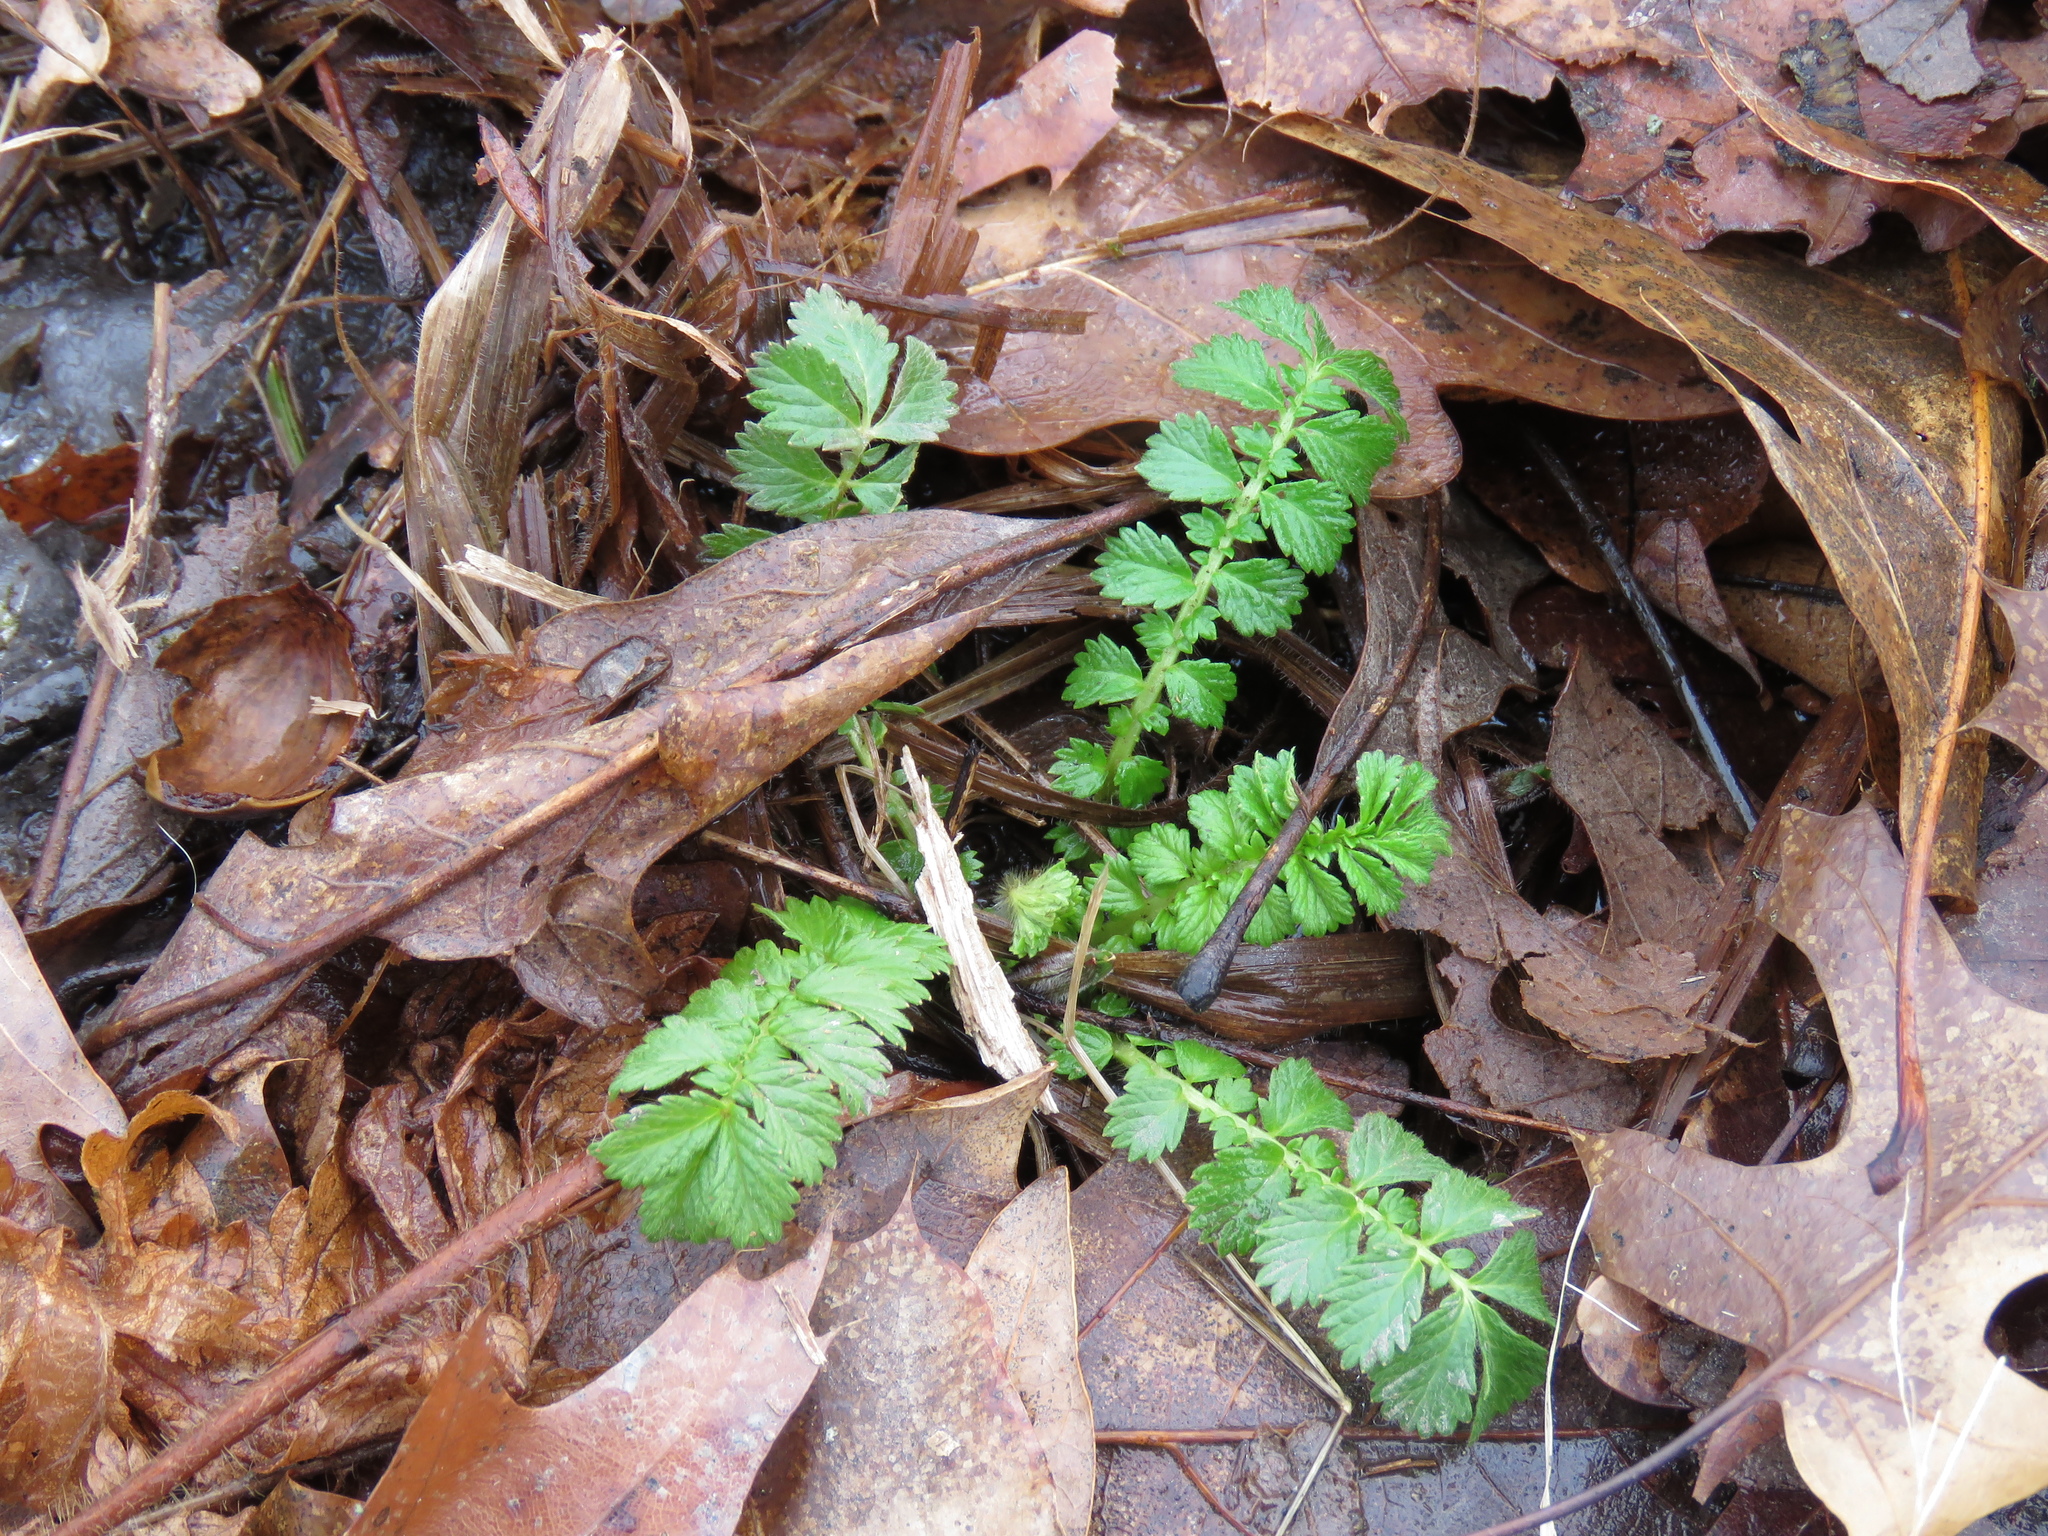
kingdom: Plantae
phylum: Tracheophyta
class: Magnoliopsida
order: Rosales
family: Rosaceae
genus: Agrimonia
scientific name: Agrimonia parviflora
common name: Harvest-lice
